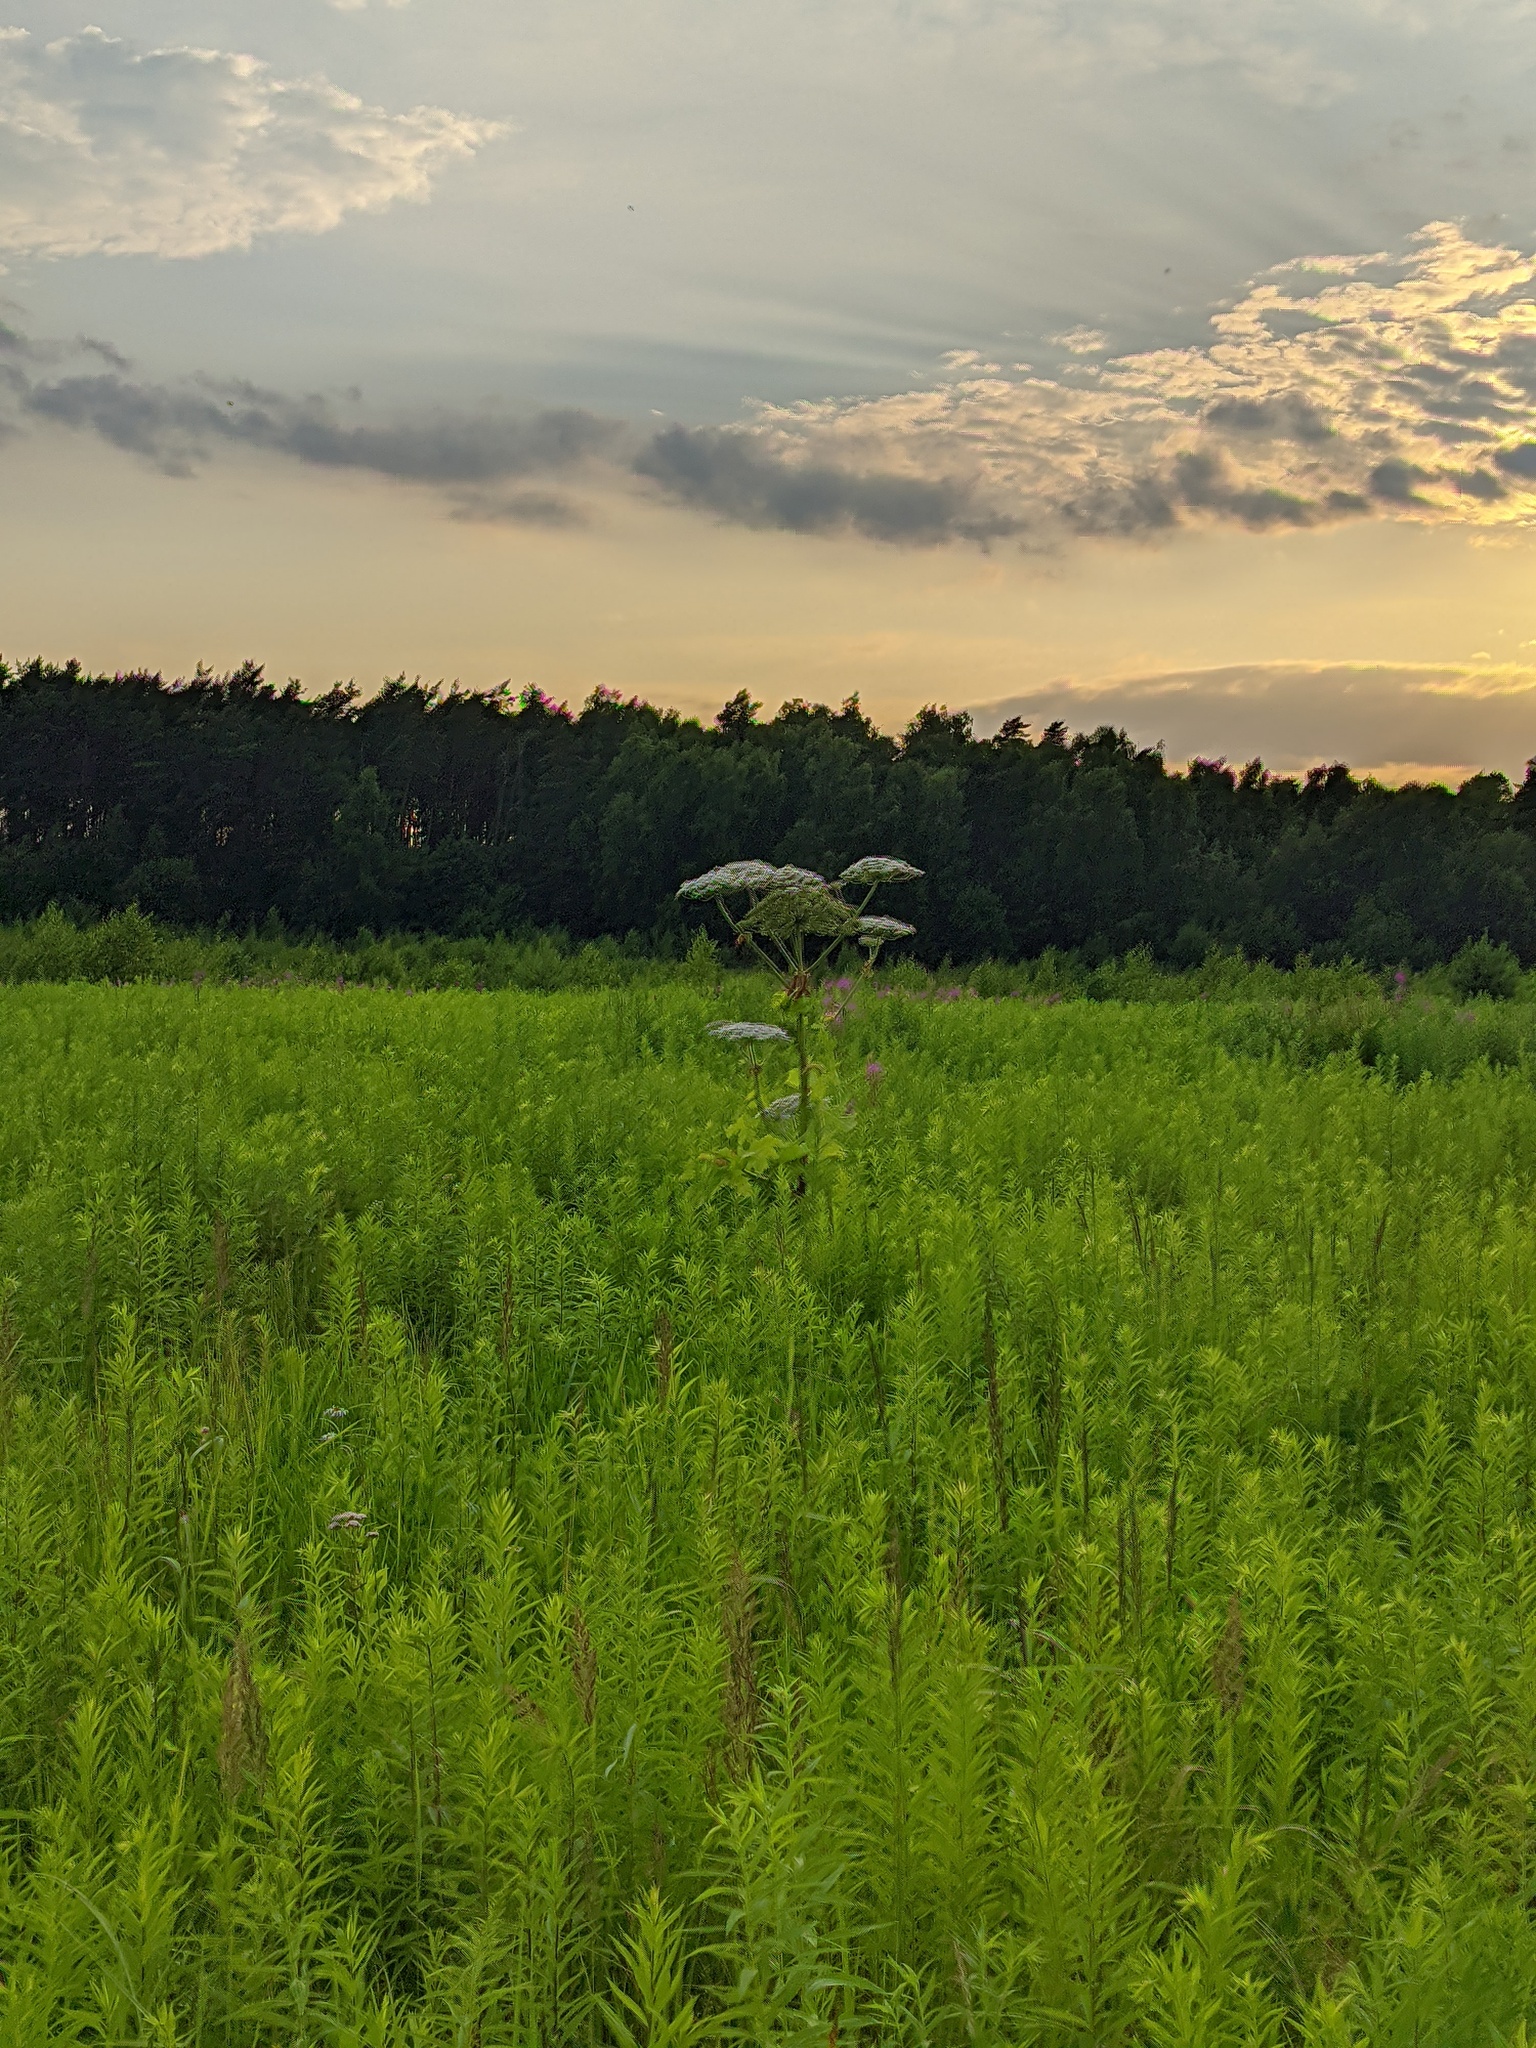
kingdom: Plantae
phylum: Tracheophyta
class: Magnoliopsida
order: Apiales
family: Apiaceae
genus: Heracleum
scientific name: Heracleum sosnowskyi
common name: Sosnowsky's hogweed
